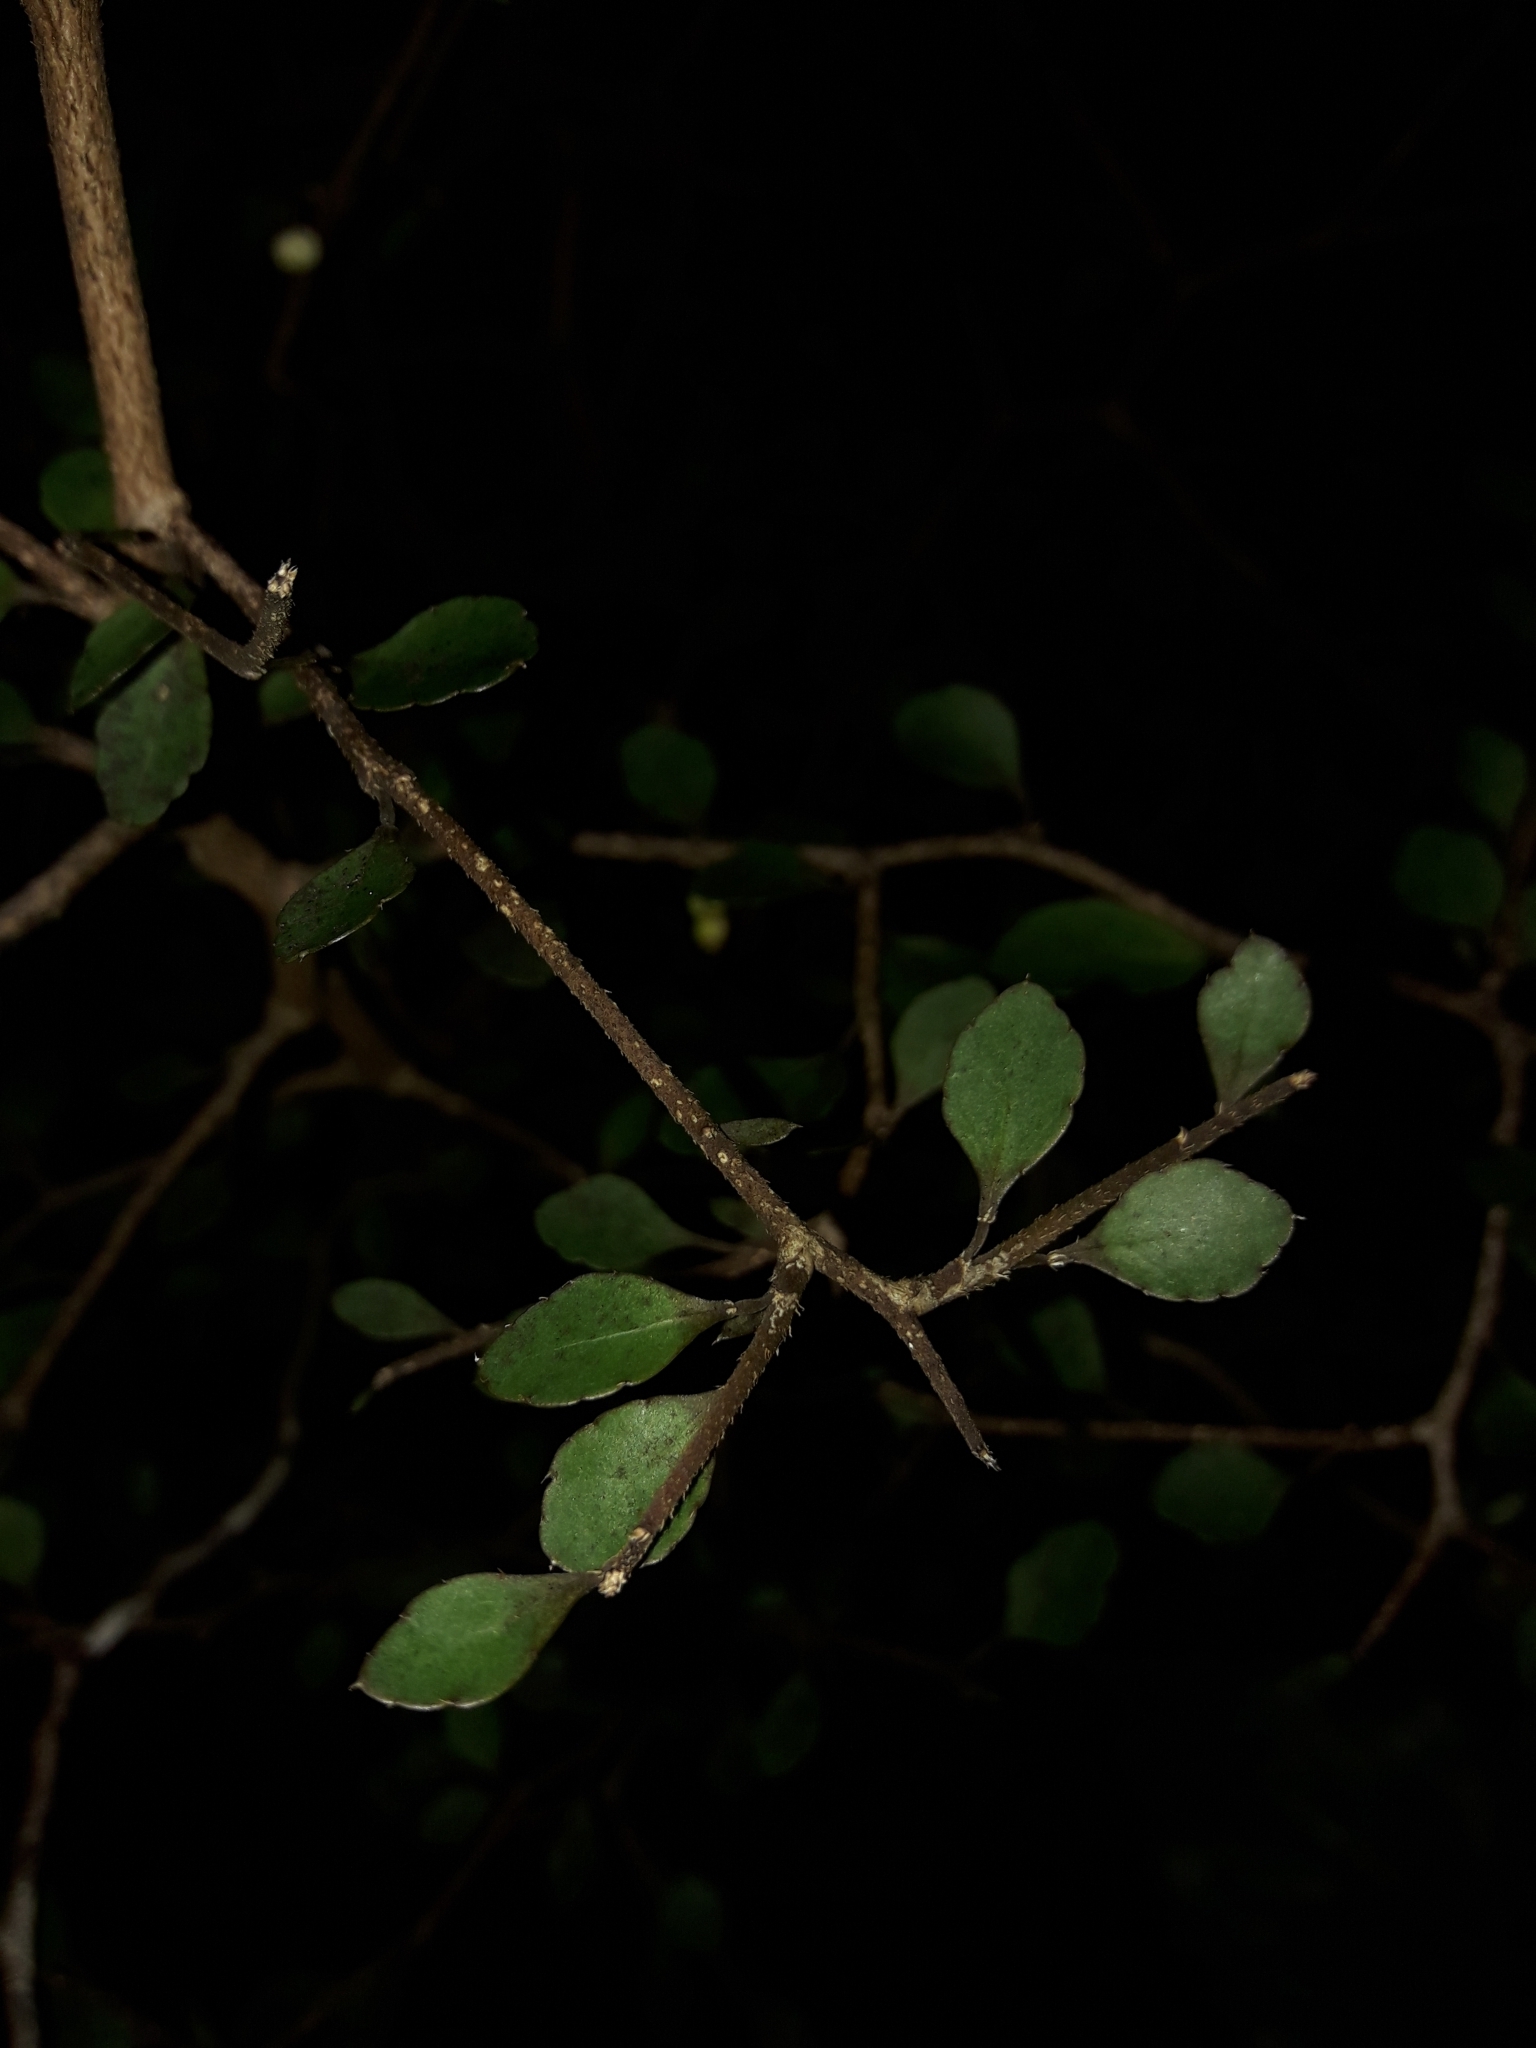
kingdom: Plantae
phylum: Tracheophyta
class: Magnoliopsida
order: Apiales
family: Araliaceae
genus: Raukaua
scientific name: Raukaua anomalus
